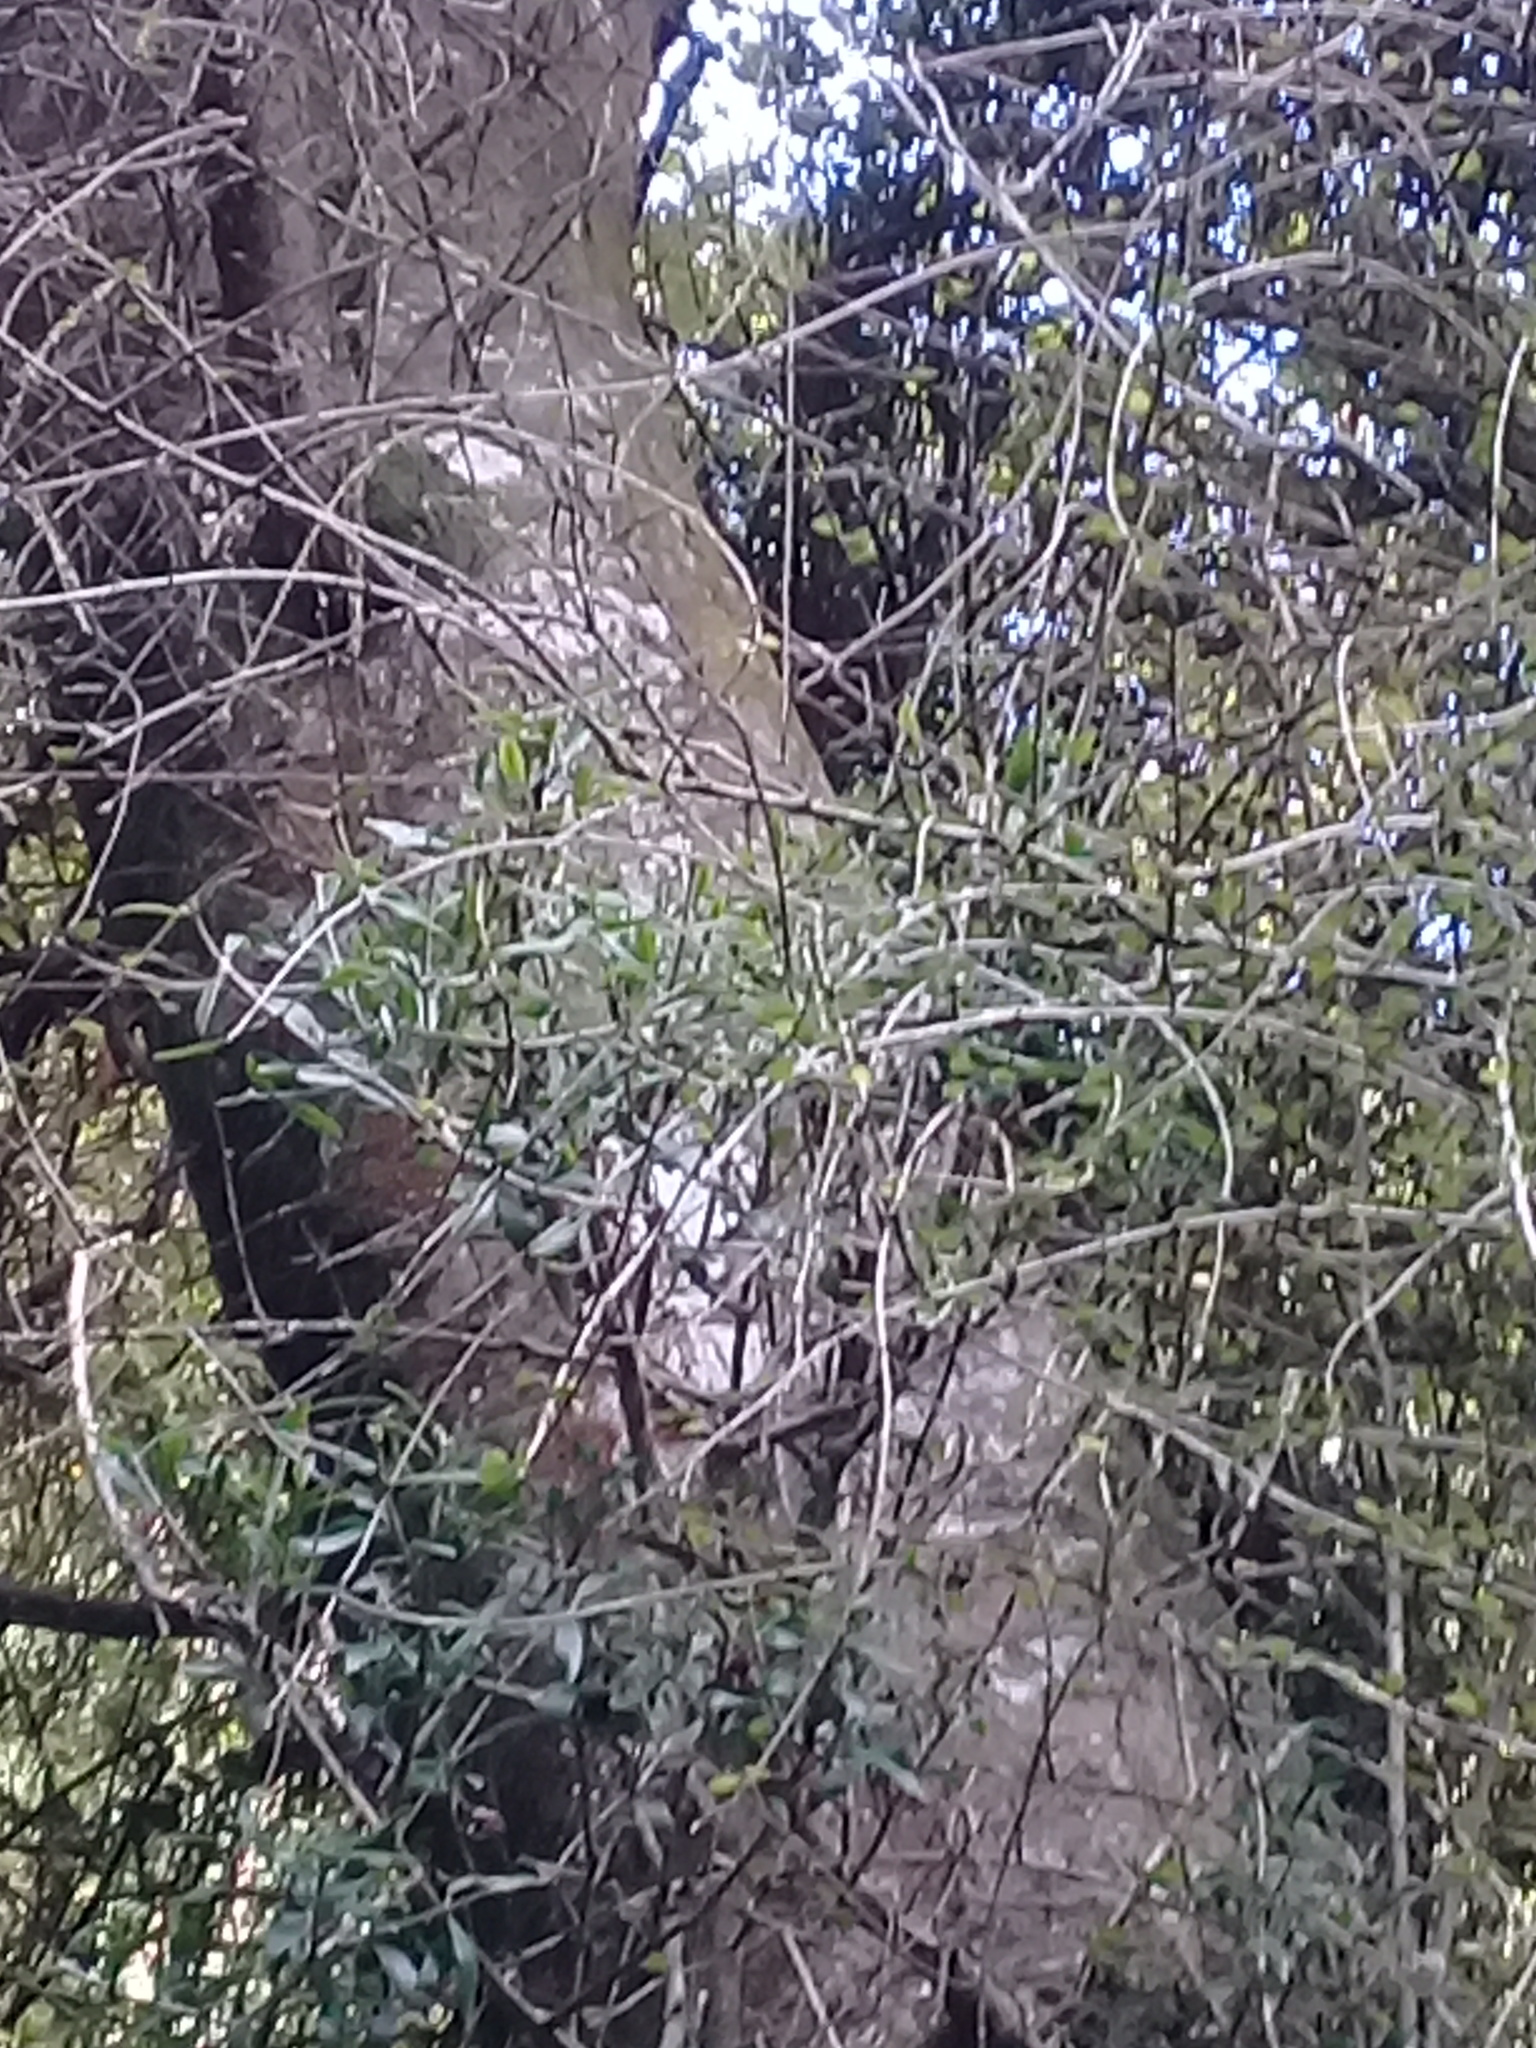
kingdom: Plantae
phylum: Tracheophyta
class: Magnoliopsida
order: Santalales
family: Loranthaceae
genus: Tupeia
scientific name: Tupeia antarctica
